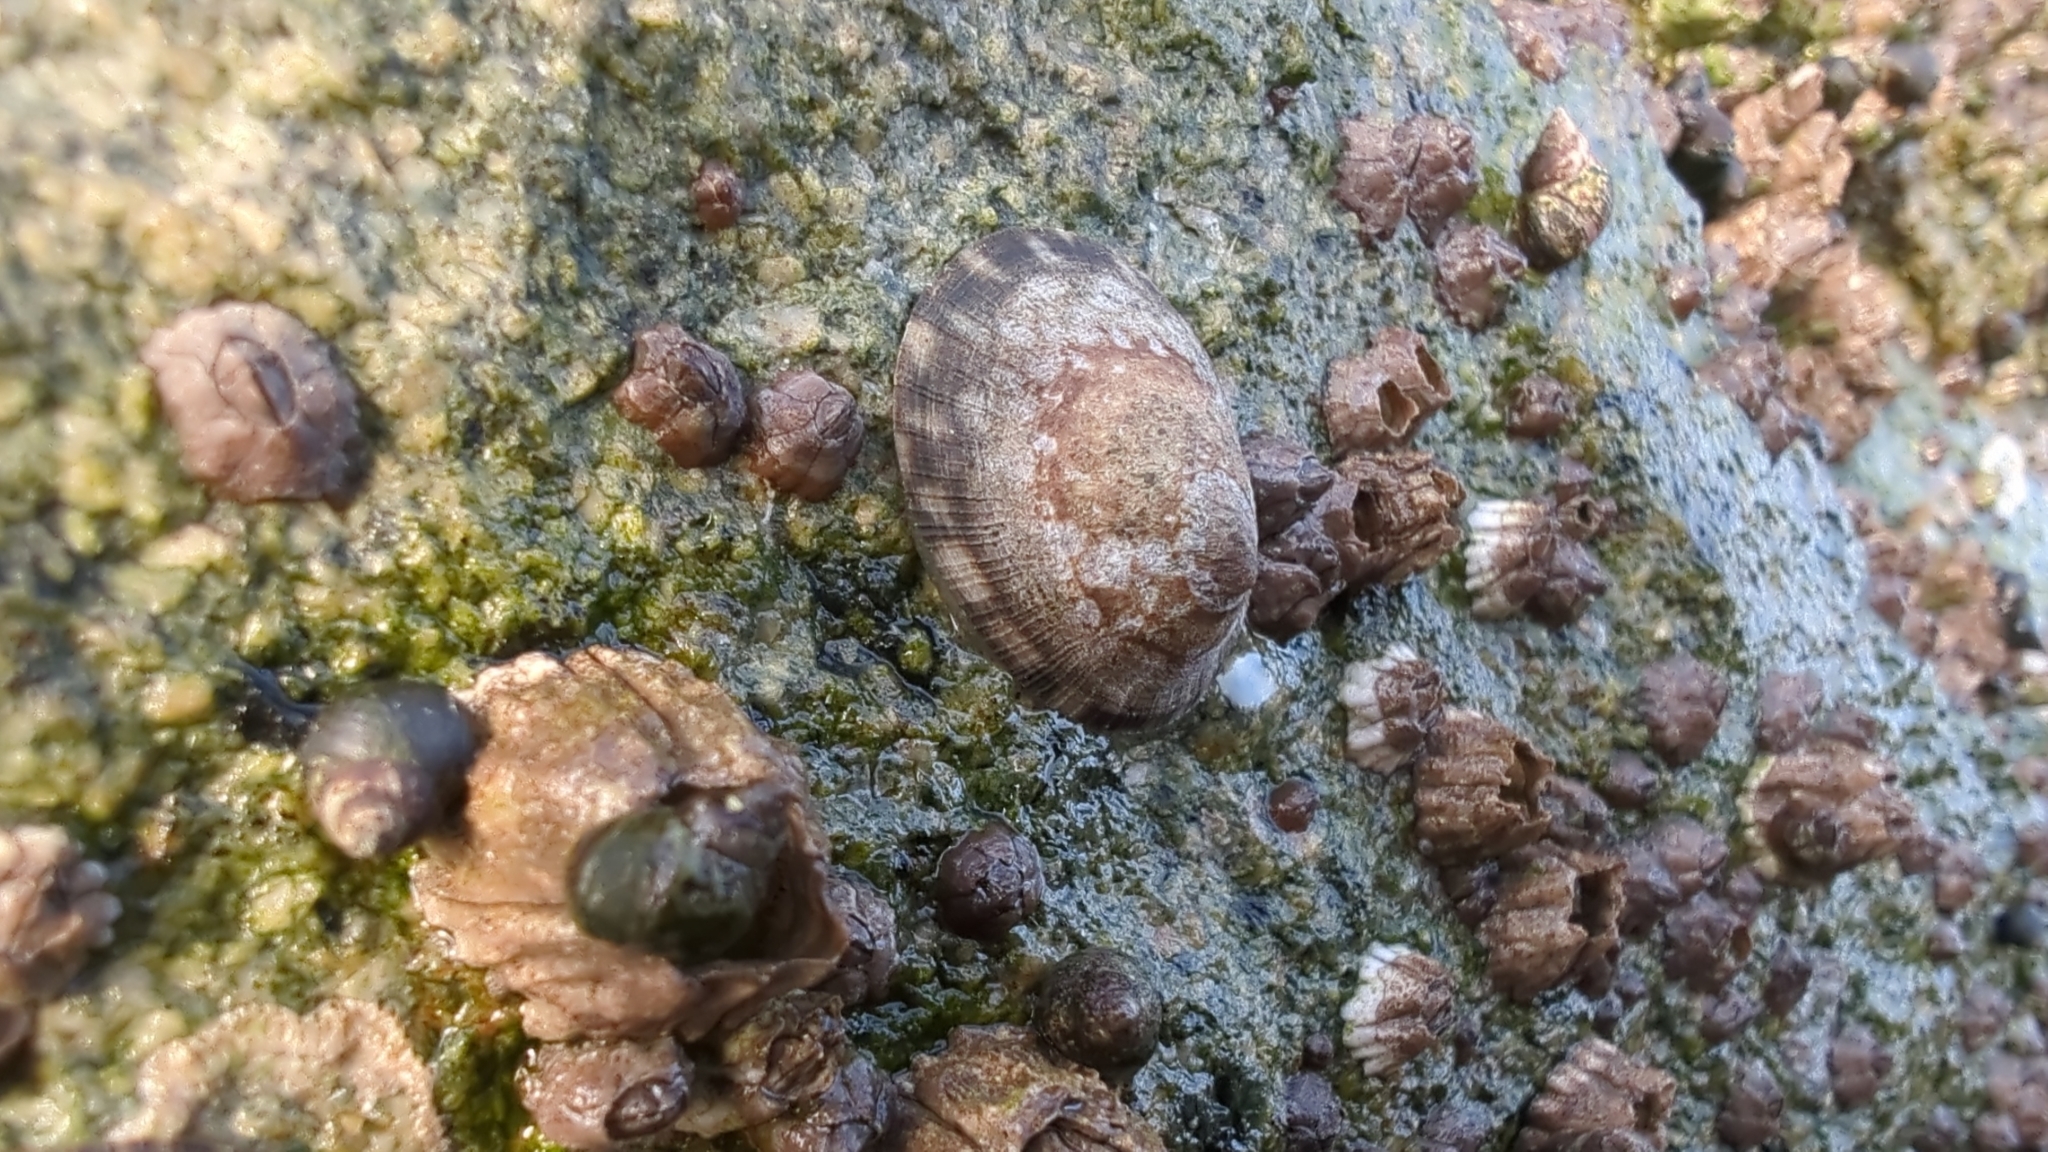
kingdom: Animalia
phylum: Mollusca
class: Gastropoda
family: Lottiidae
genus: Lottia
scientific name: Lottia persona
